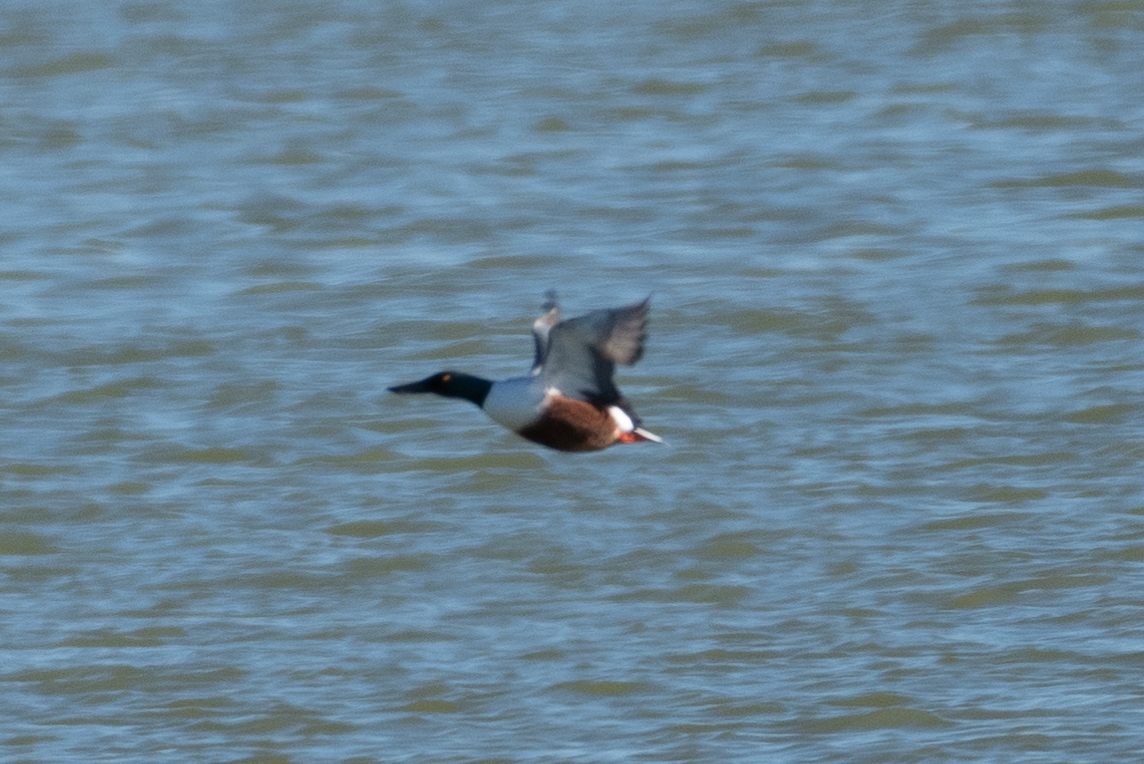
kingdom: Animalia
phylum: Chordata
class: Aves
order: Anseriformes
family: Anatidae
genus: Spatula
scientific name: Spatula clypeata
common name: Northern shoveler
